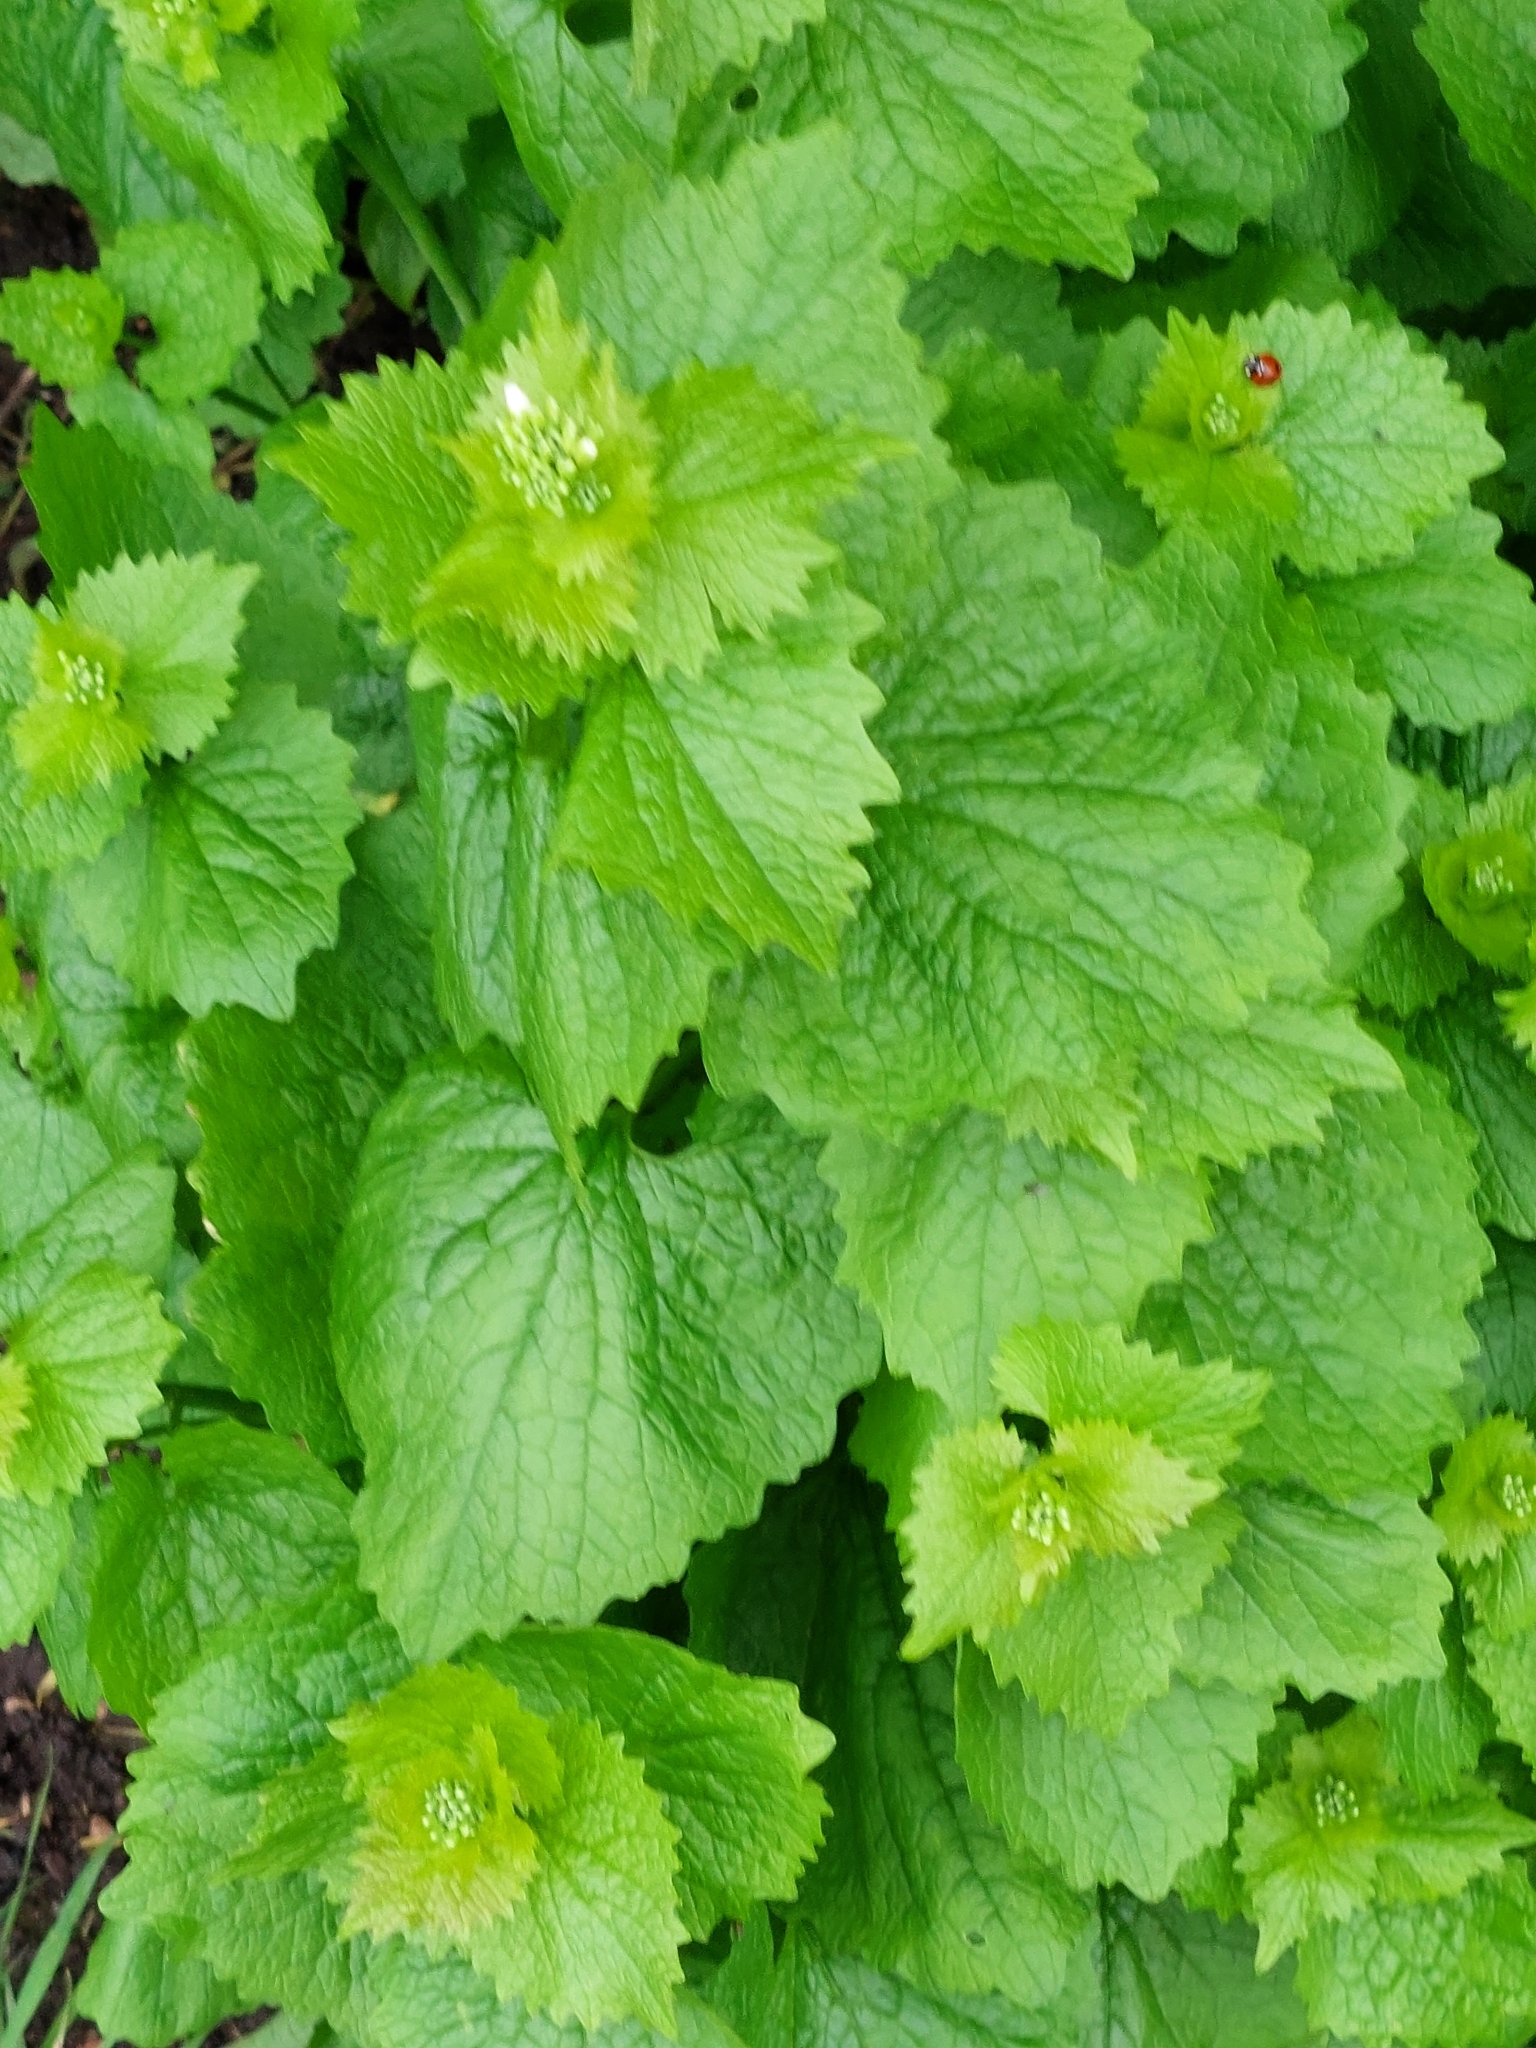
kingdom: Plantae
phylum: Tracheophyta
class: Magnoliopsida
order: Brassicales
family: Brassicaceae
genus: Alliaria
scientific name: Alliaria petiolata
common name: Garlic mustard
